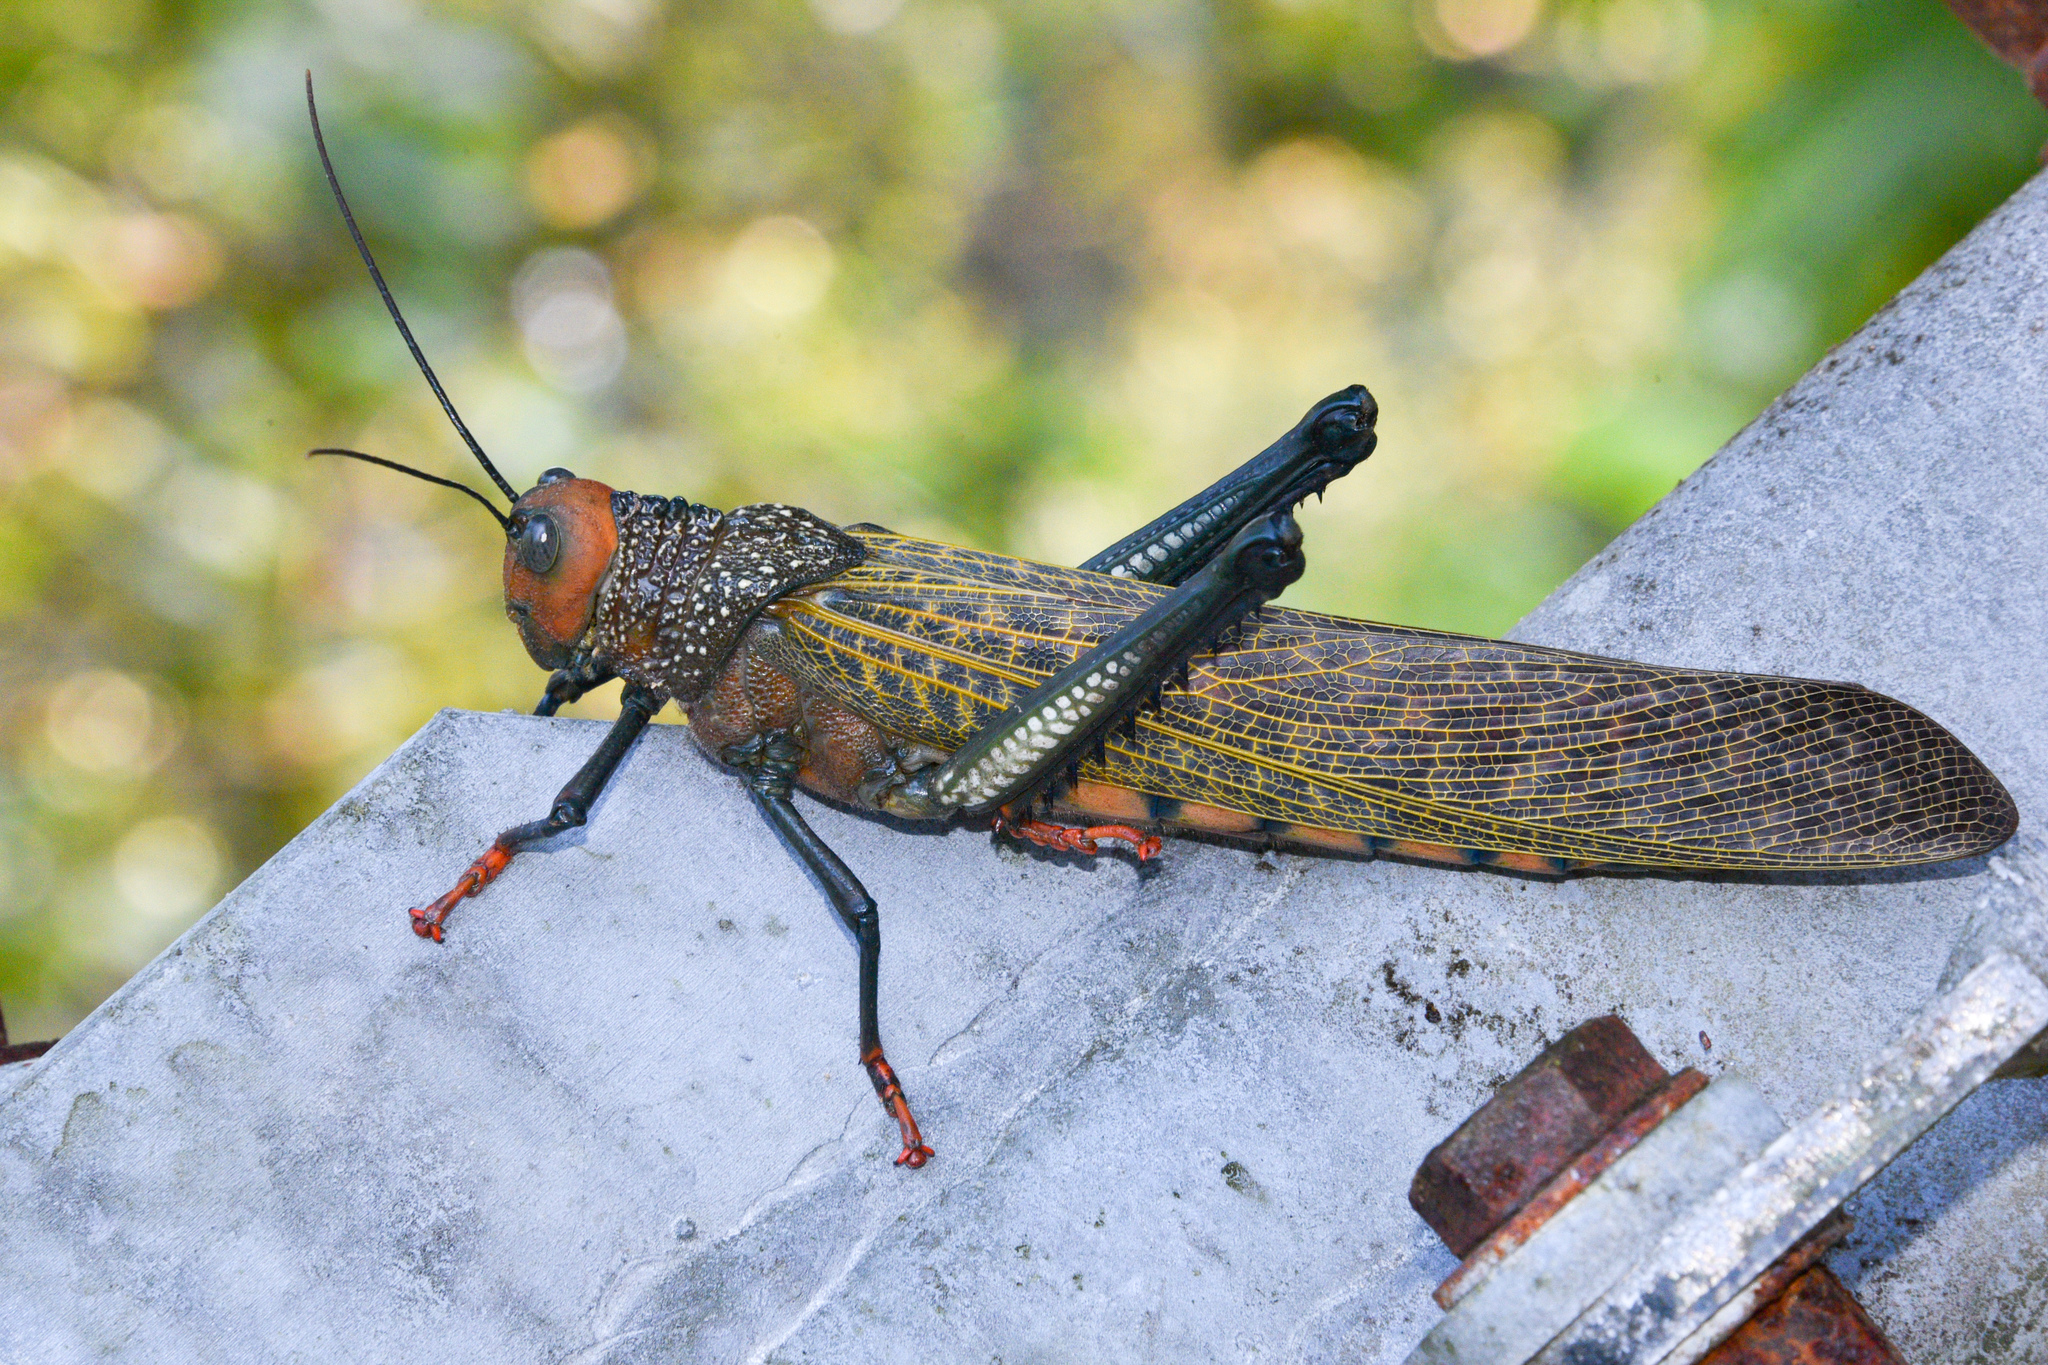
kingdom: Animalia
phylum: Arthropoda
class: Insecta
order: Orthoptera
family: Romaleidae
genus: Tropidacris
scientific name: Tropidacris cristata
